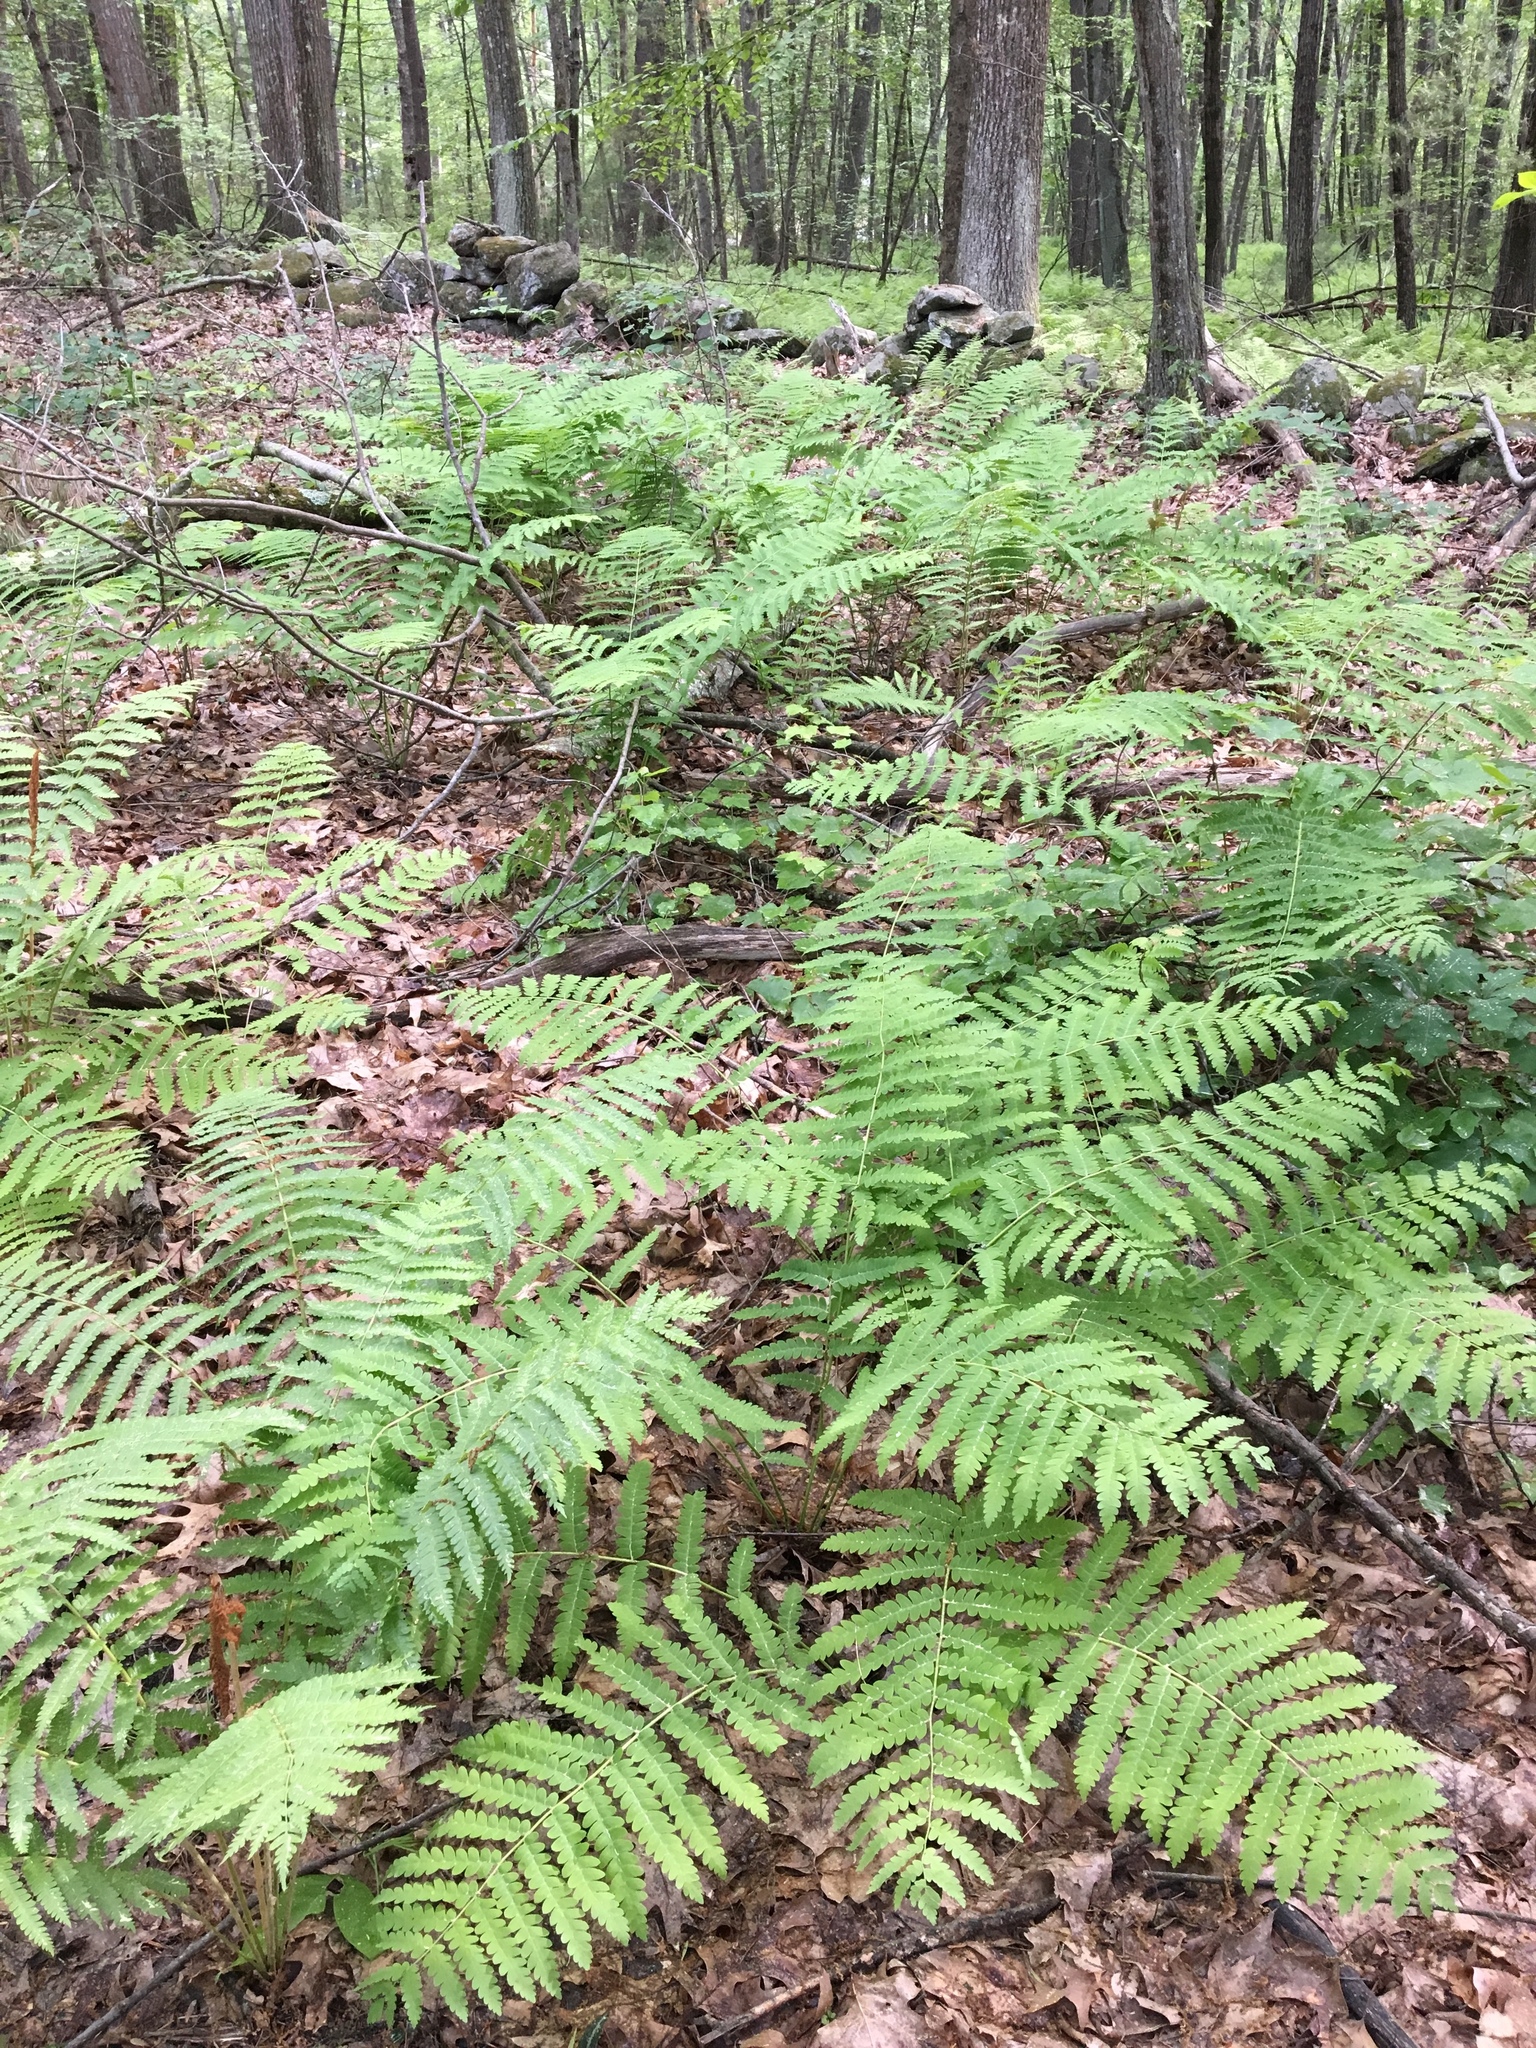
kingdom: Plantae
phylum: Tracheophyta
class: Polypodiopsida
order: Osmundales
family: Osmundaceae
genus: Osmundastrum
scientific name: Osmundastrum cinnamomeum
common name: Cinnamon fern
